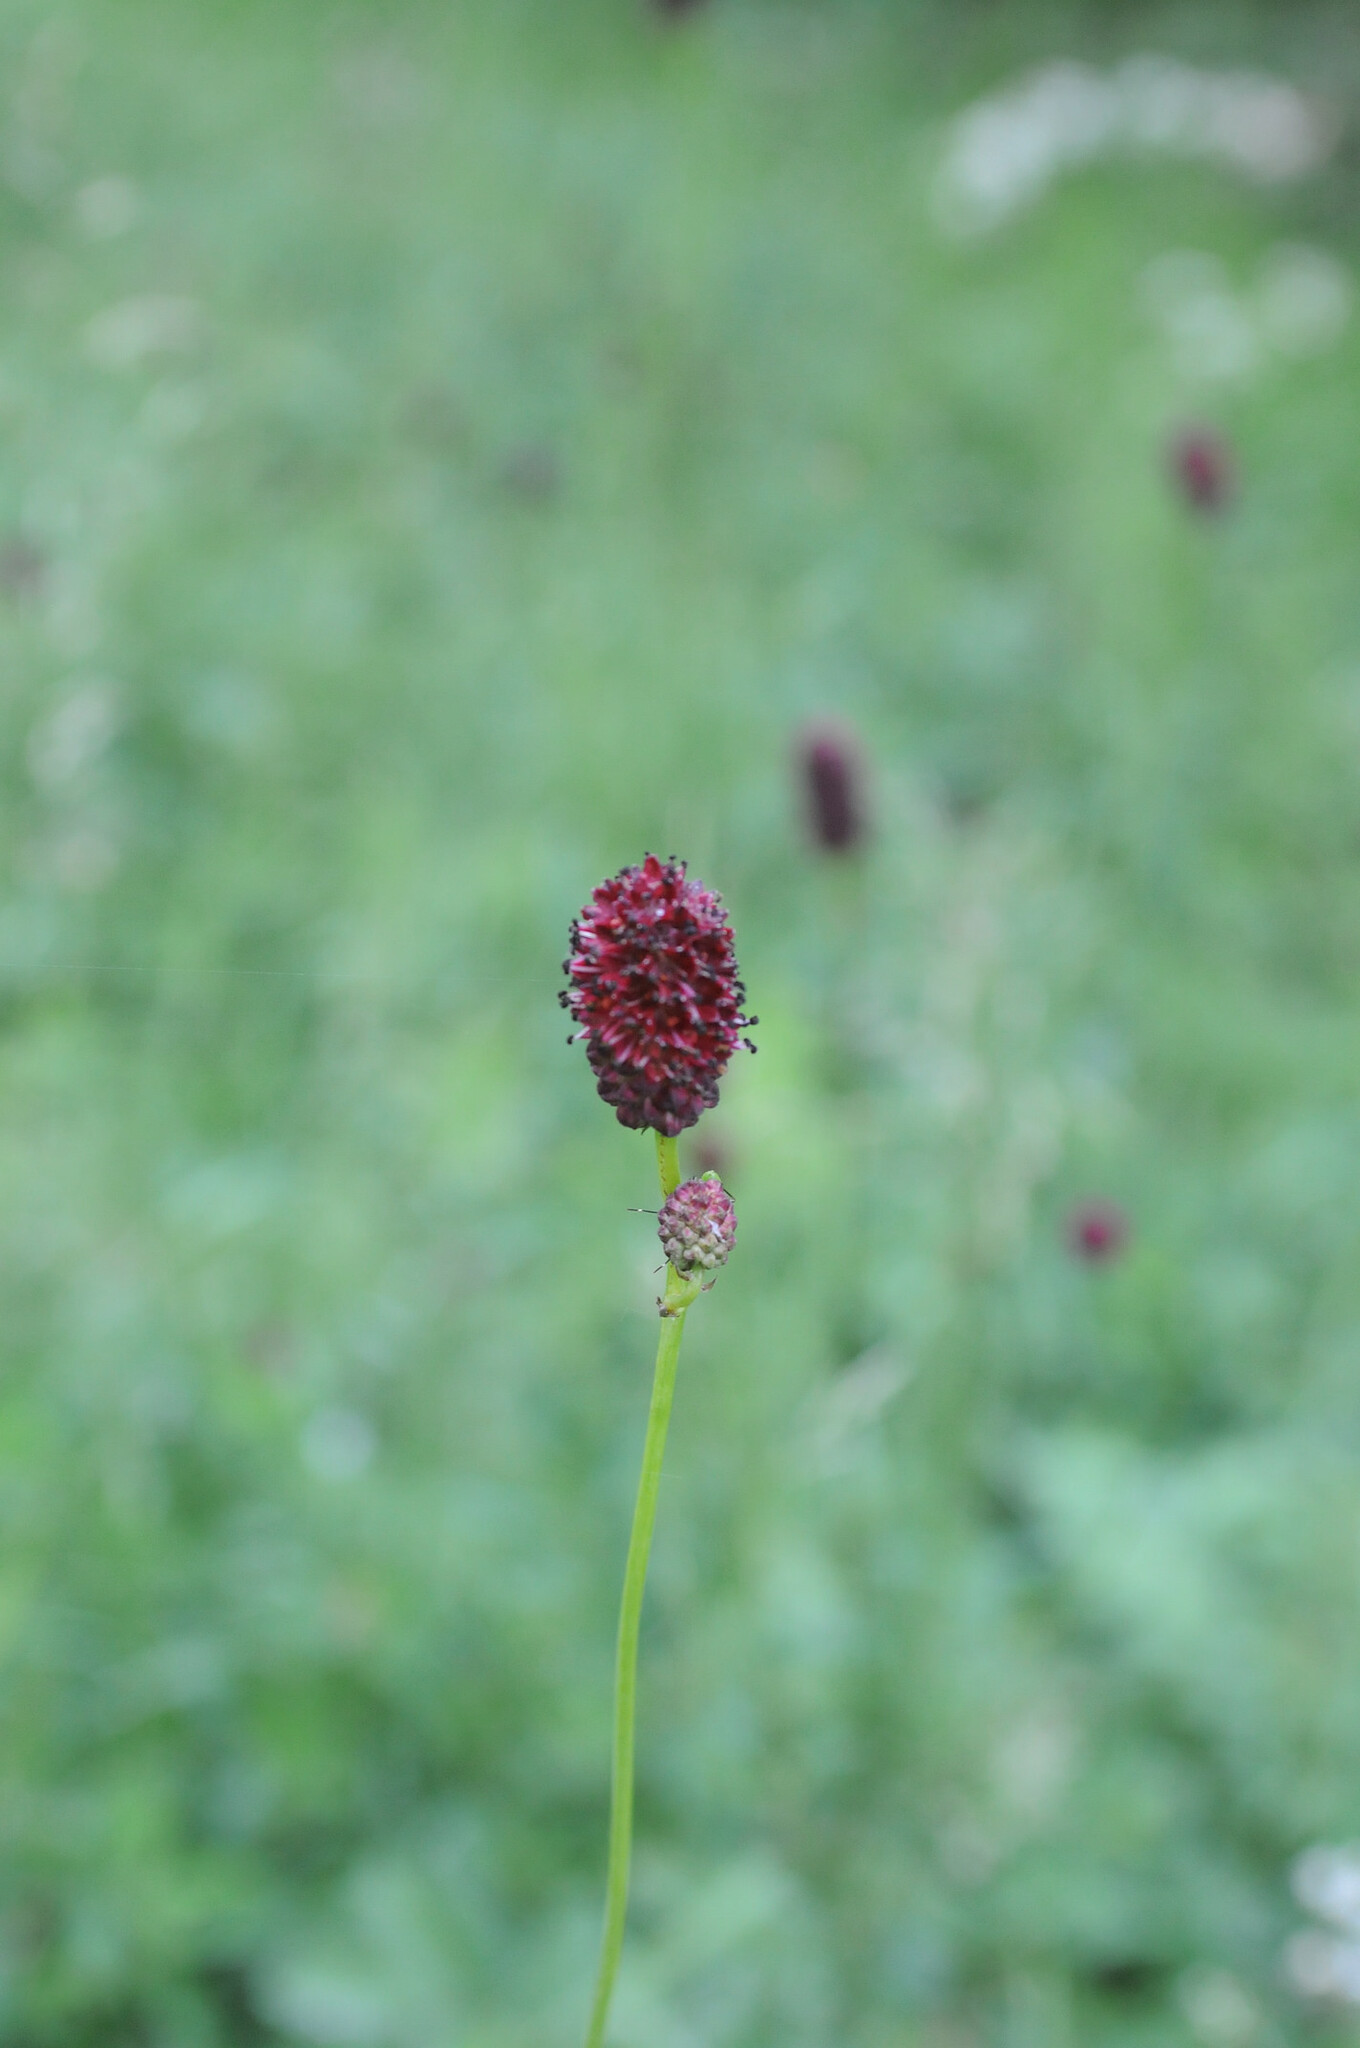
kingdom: Plantae
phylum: Tracheophyta
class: Magnoliopsida
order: Rosales
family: Rosaceae
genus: Sanguisorba
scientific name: Sanguisorba officinalis
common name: Great burnet
